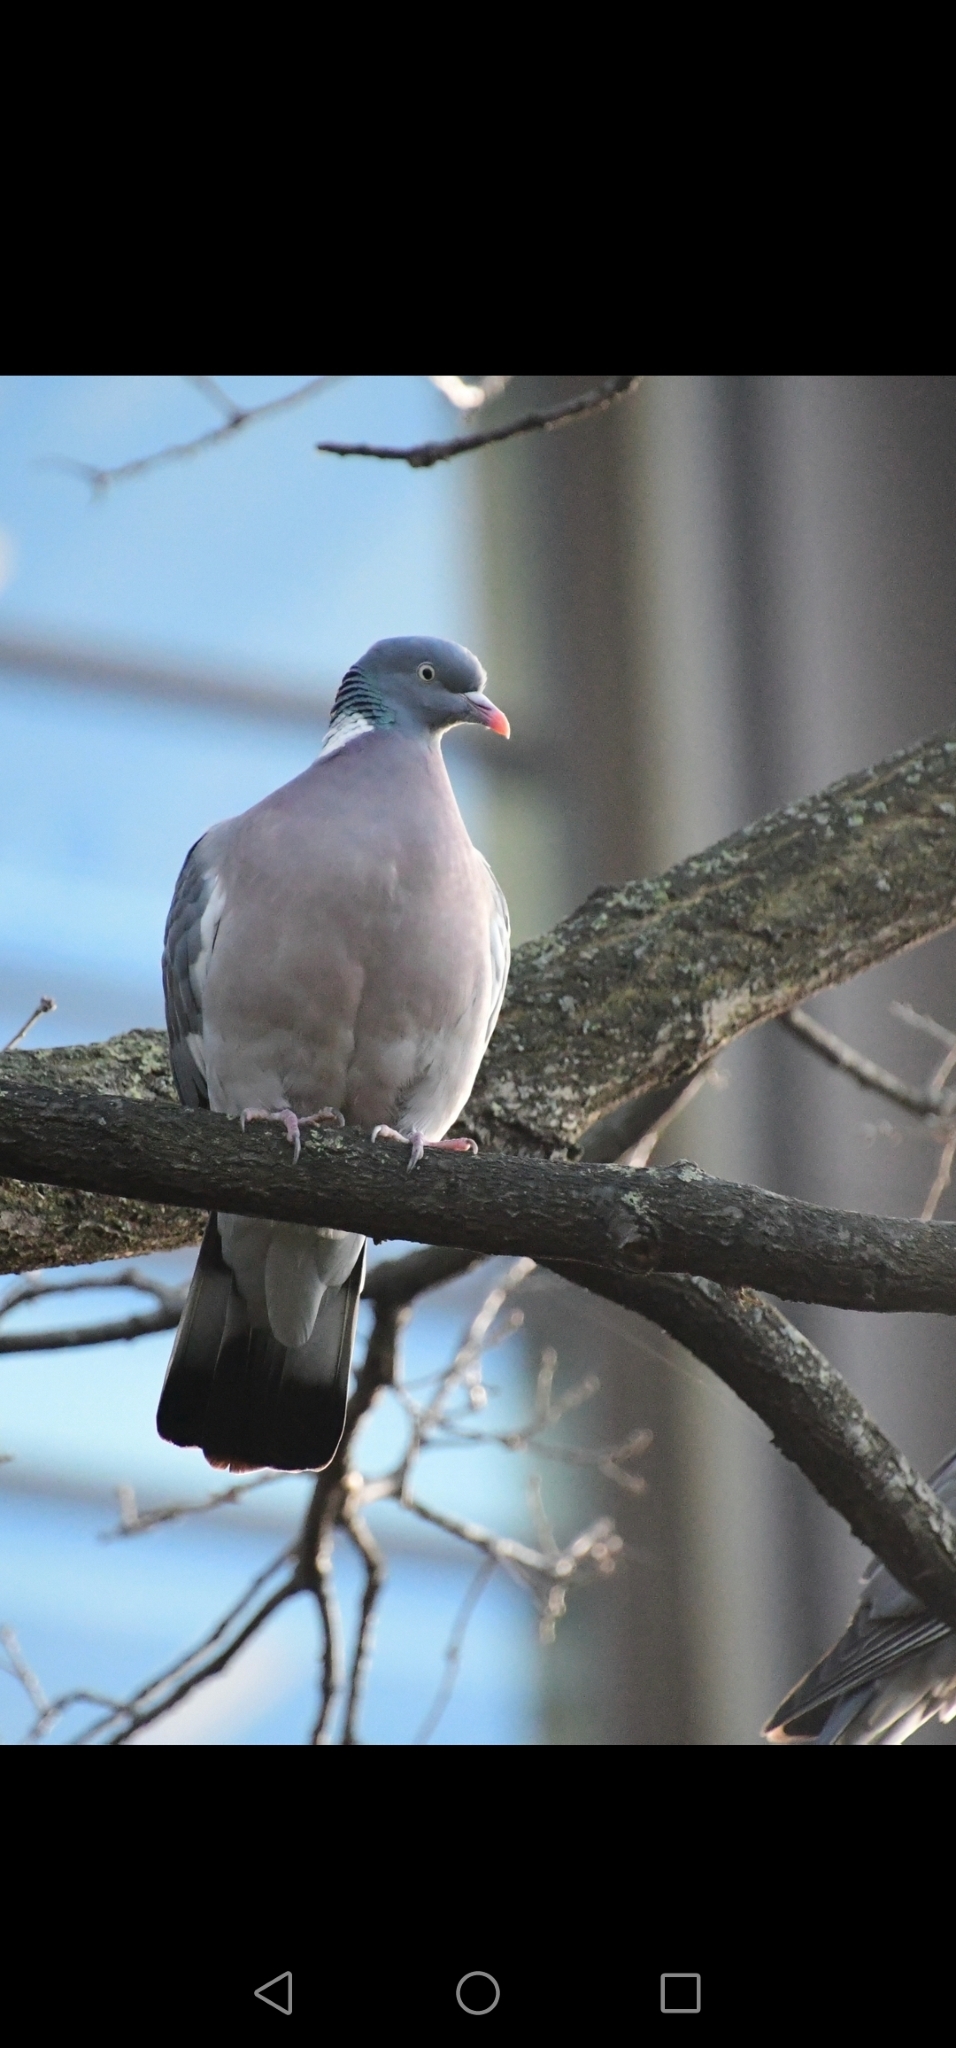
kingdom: Animalia
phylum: Chordata
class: Aves
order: Columbiformes
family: Columbidae
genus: Columba
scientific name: Columba palumbus
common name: Common wood pigeon
